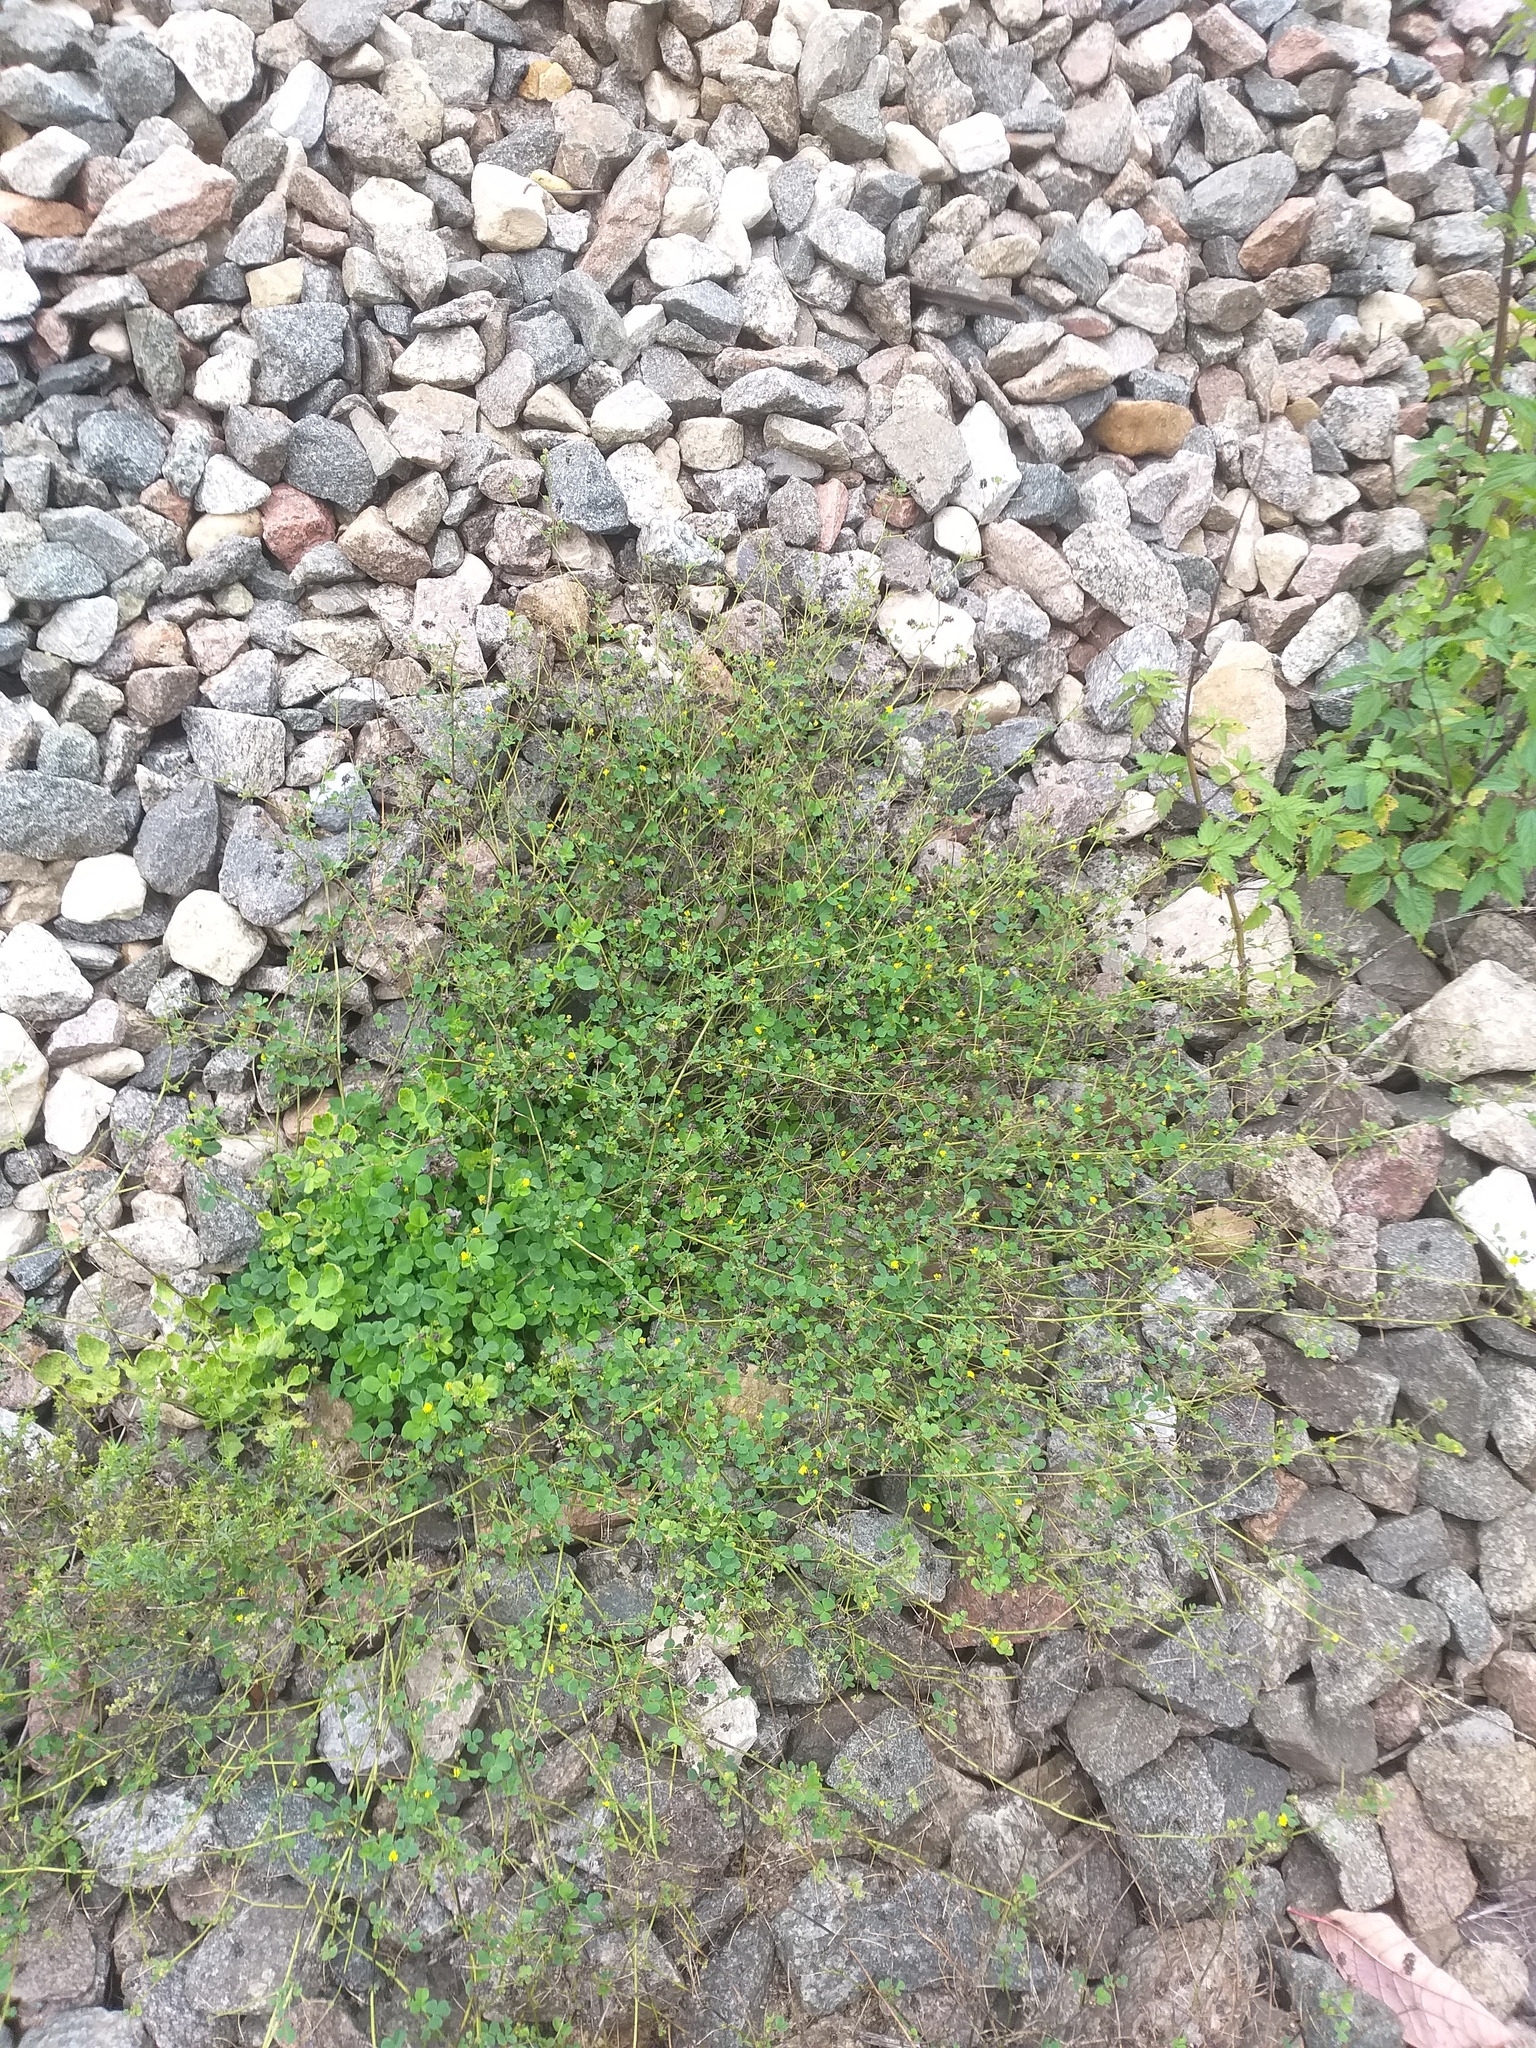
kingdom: Plantae
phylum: Tracheophyta
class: Magnoliopsida
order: Fabales
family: Fabaceae
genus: Medicago
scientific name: Medicago lupulina
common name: Black medick
